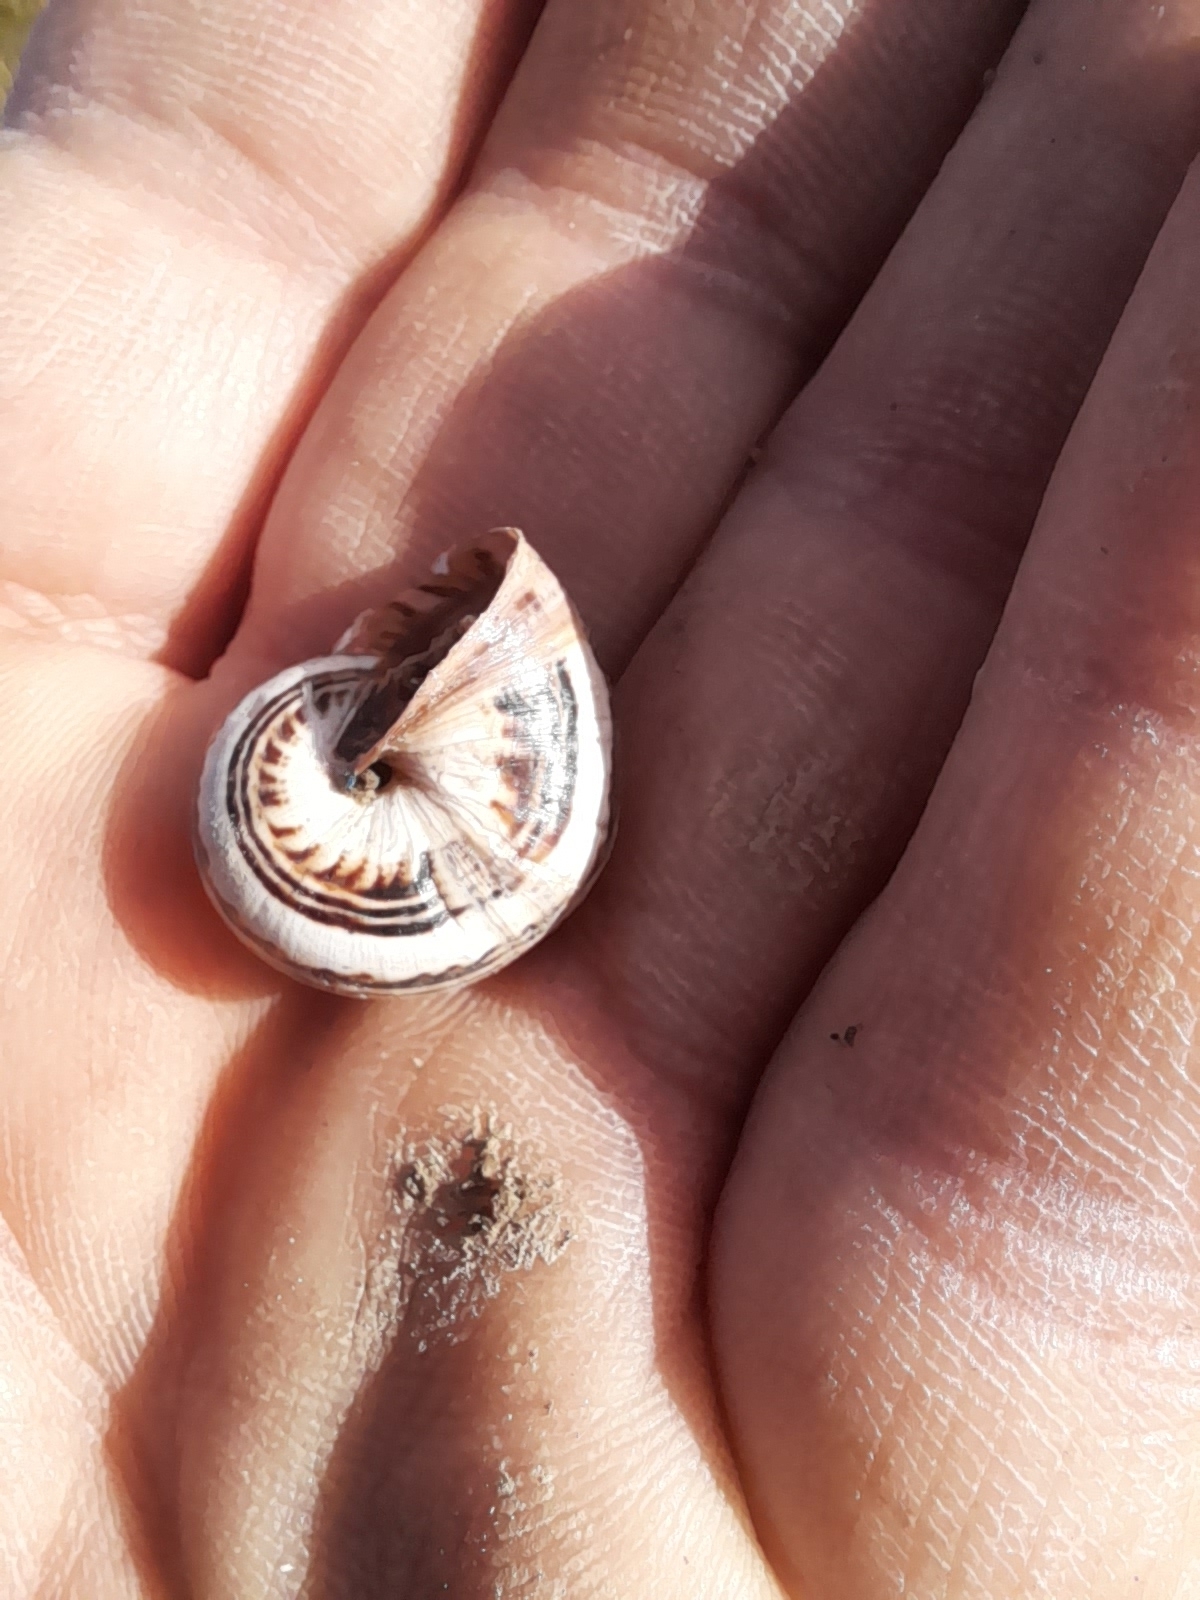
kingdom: Animalia
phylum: Mollusca
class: Gastropoda
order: Stylommatophora
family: Helicidae
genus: Theba
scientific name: Theba pisana
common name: White snail
